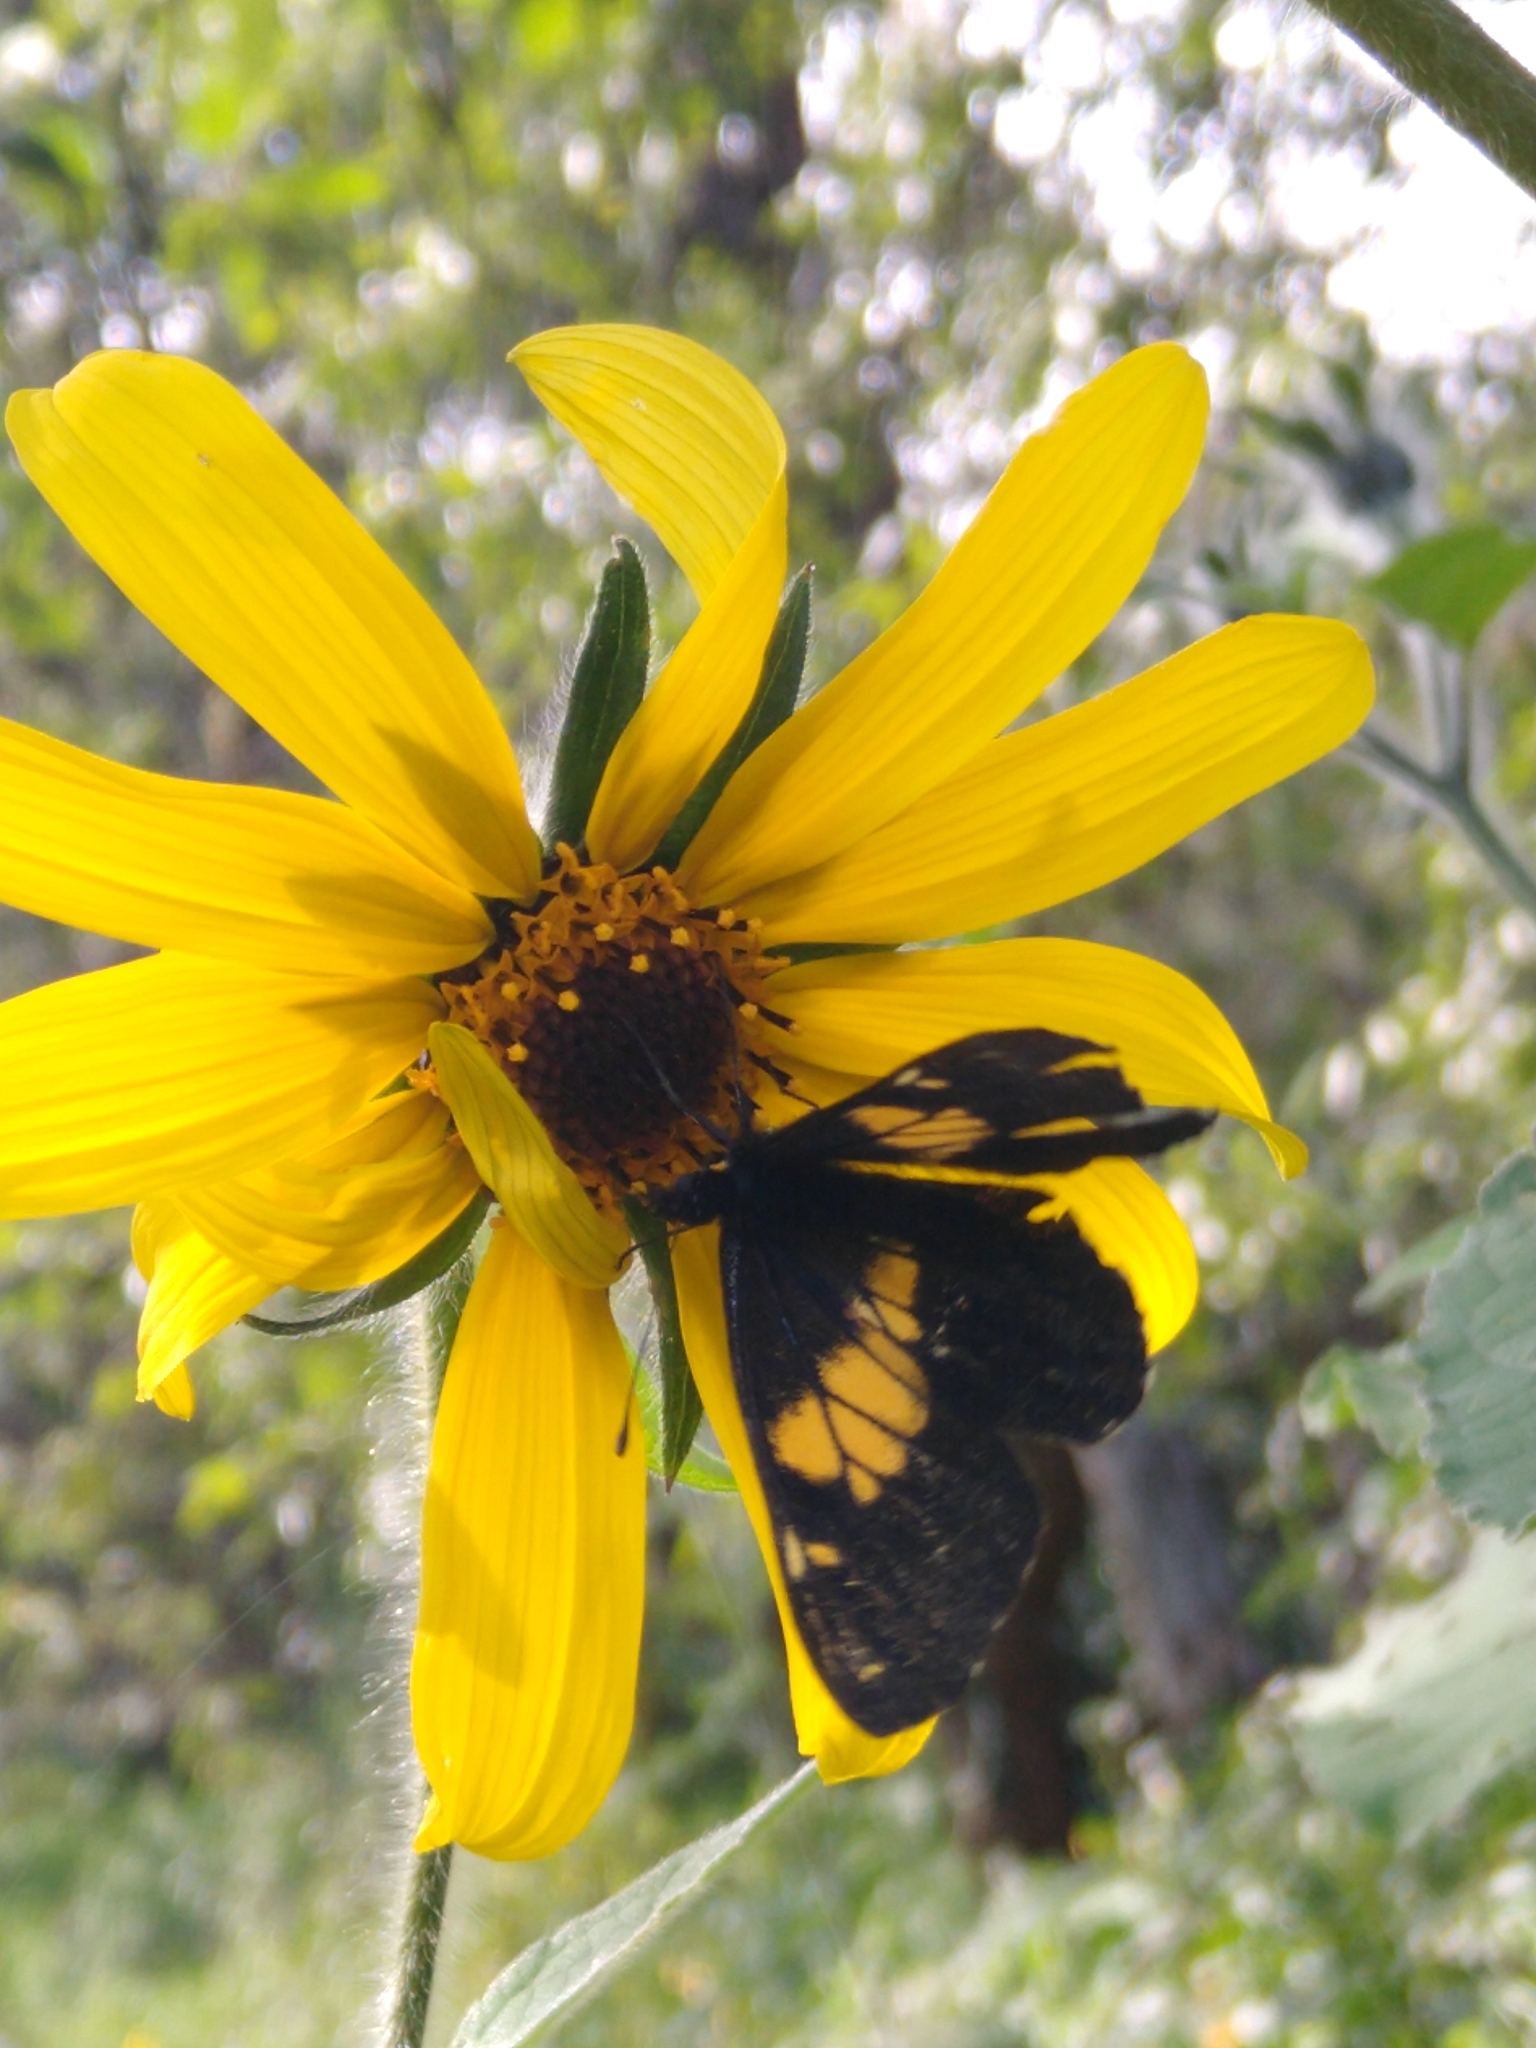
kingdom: Animalia
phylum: Arthropoda
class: Insecta
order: Lepidoptera
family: Pieridae
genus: Archonias
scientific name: Archonias teutila
